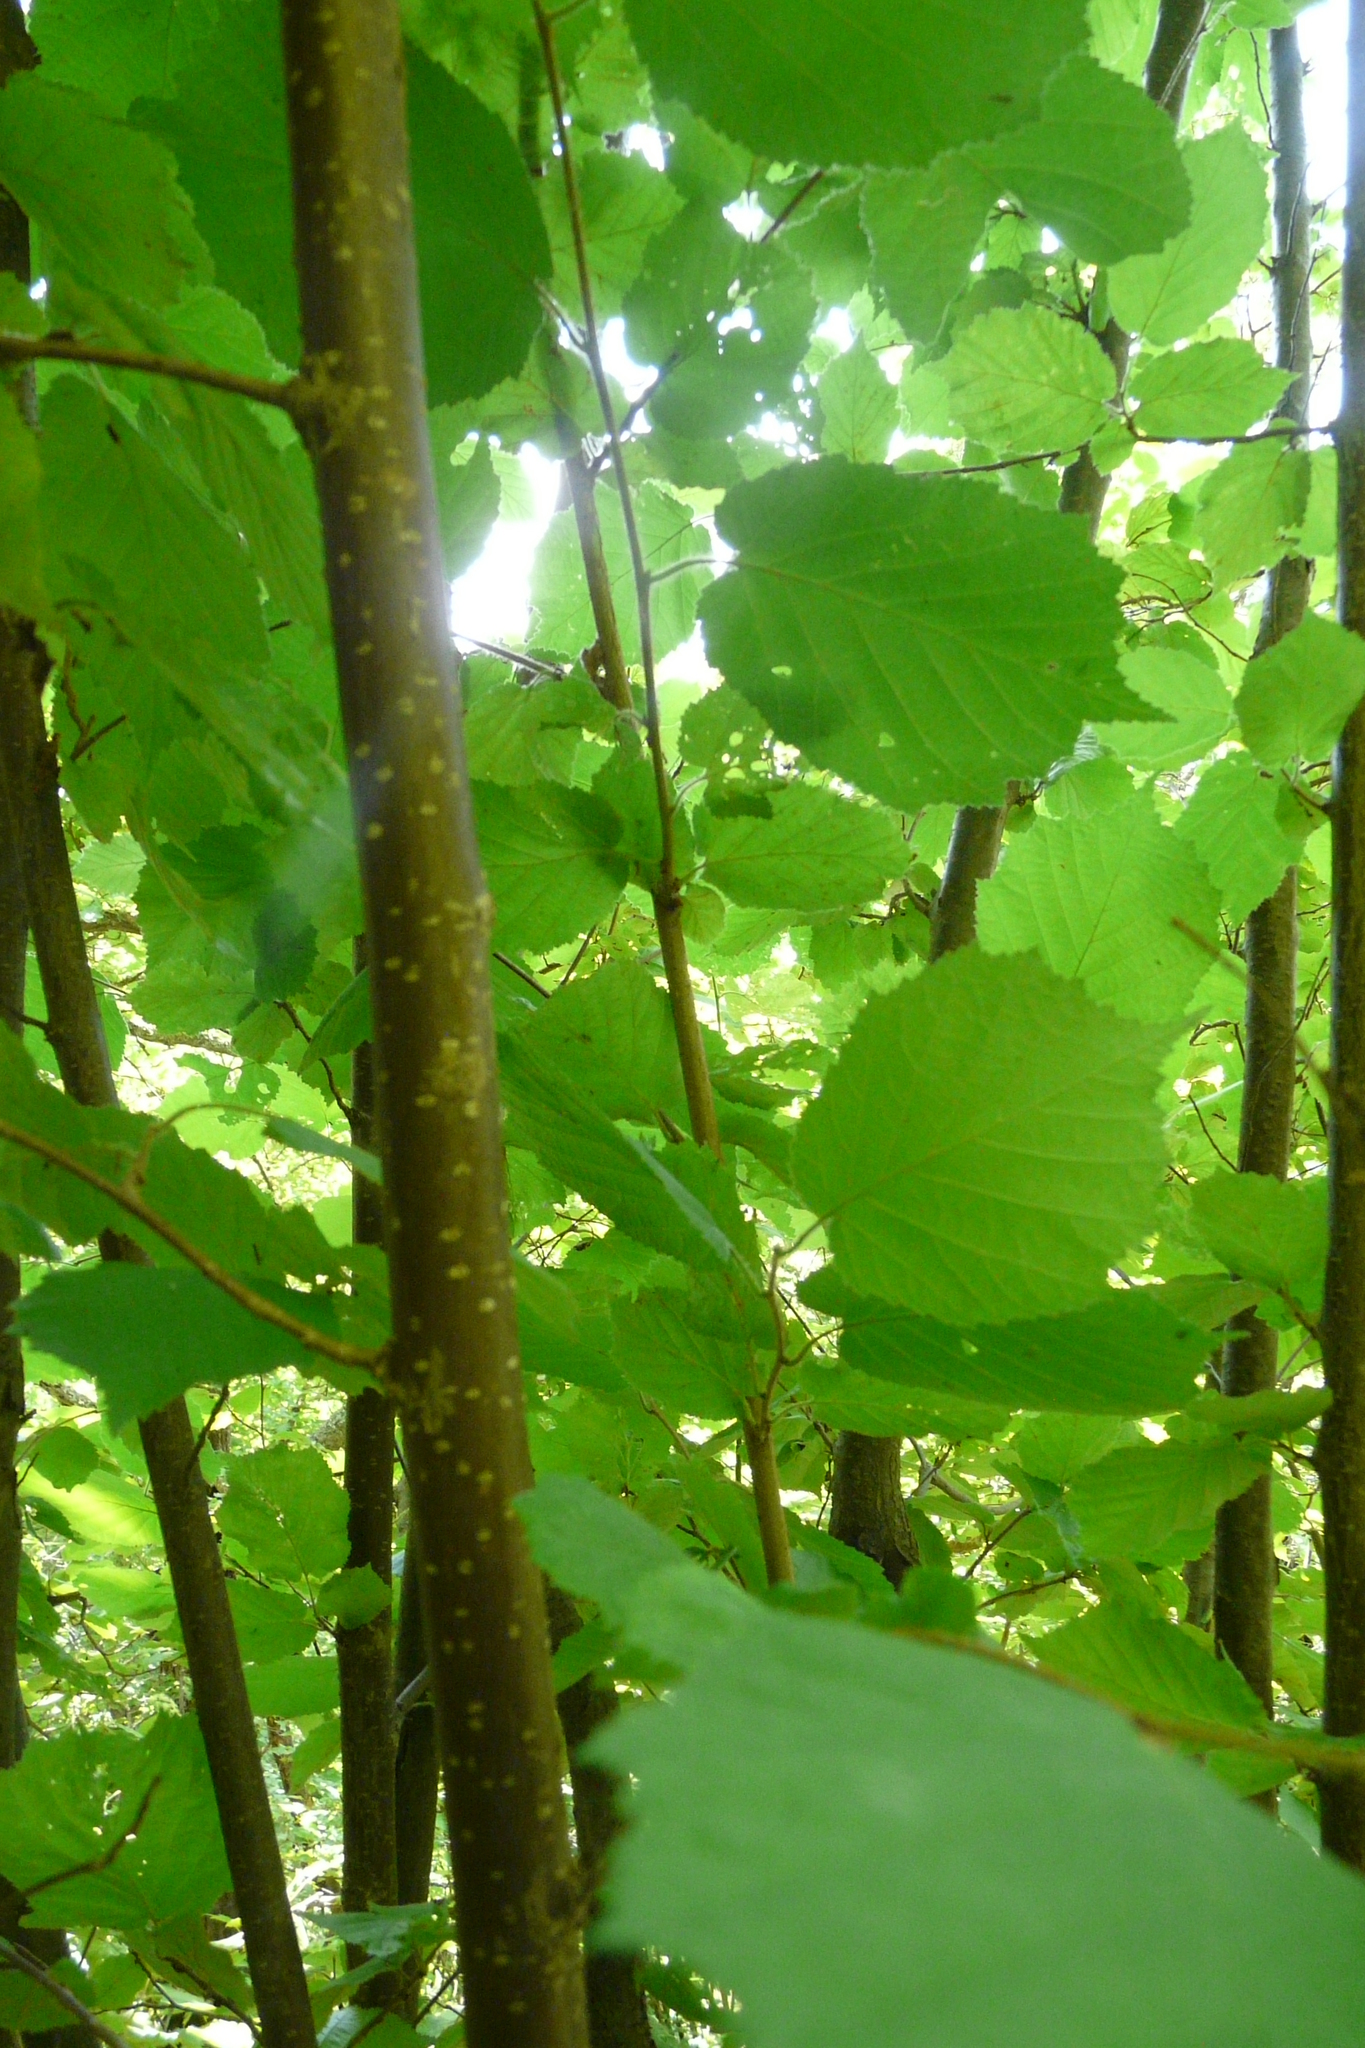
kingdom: Plantae
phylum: Tracheophyta
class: Magnoliopsida
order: Fagales
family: Betulaceae
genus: Corylus
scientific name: Corylus avellana
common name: European hazel
